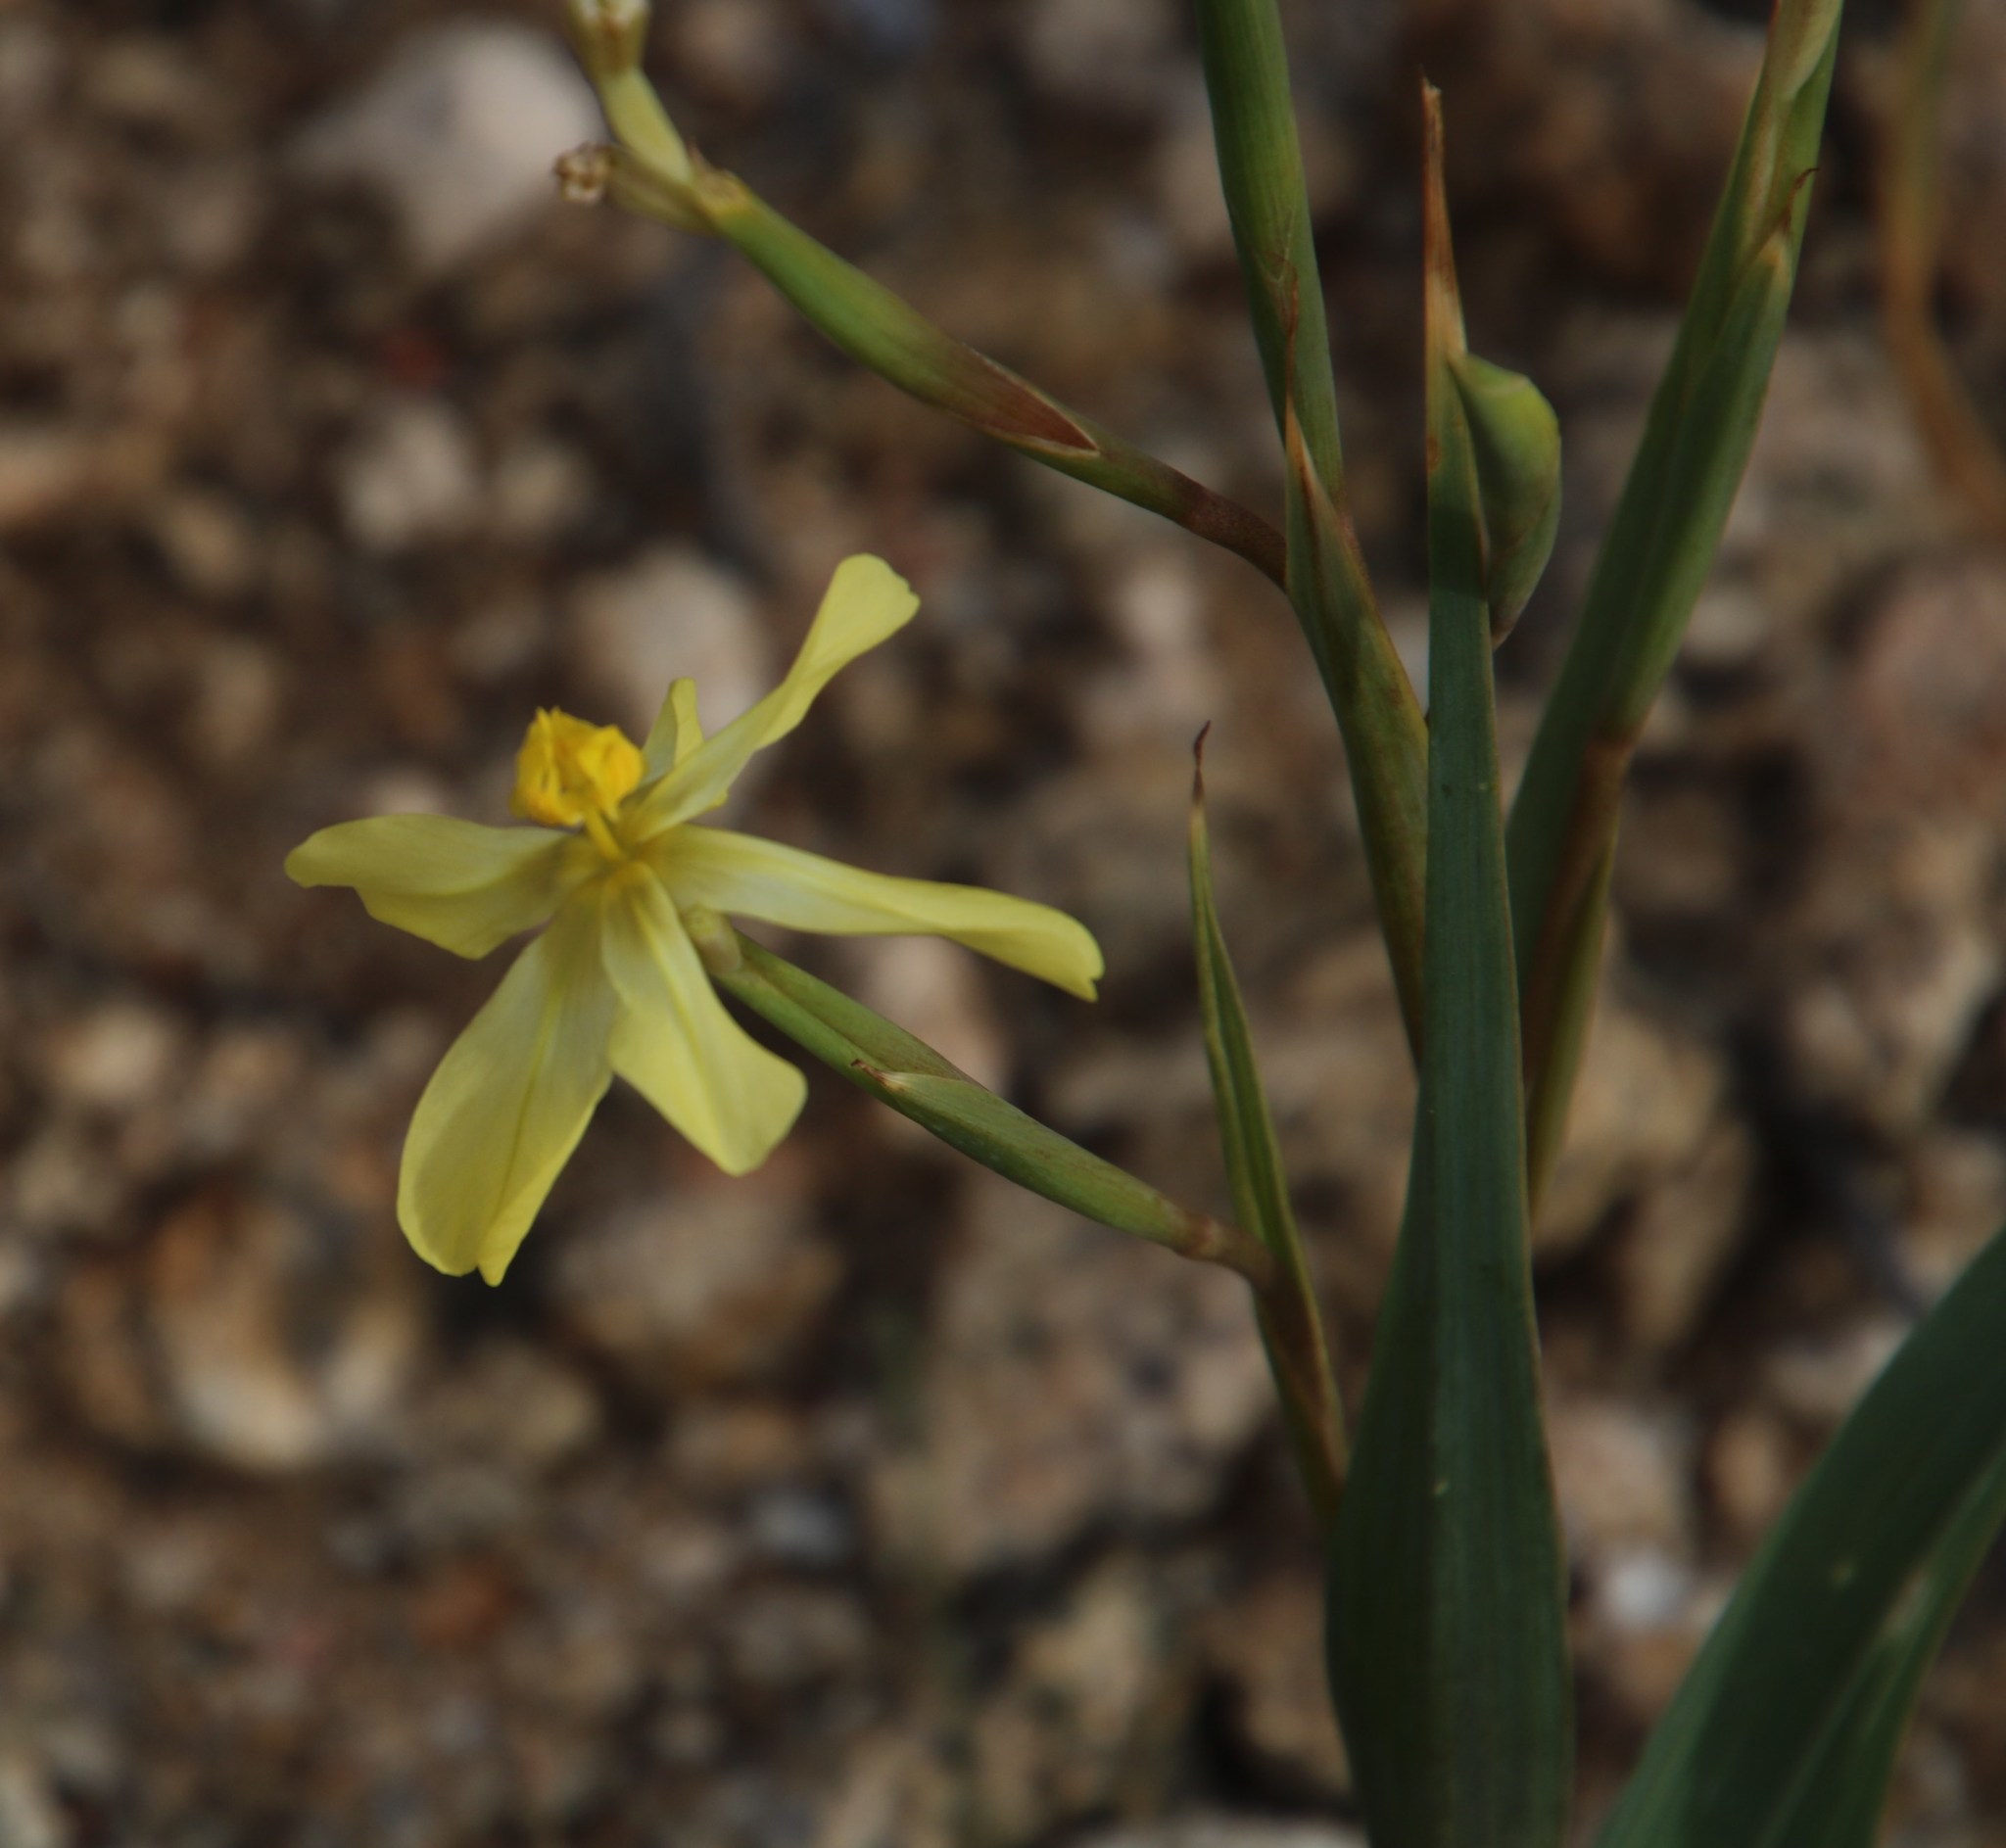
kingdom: Plantae
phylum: Tracheophyta
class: Liliopsida
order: Asparagales
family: Iridaceae
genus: Moraea
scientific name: Moraea schlechteri
